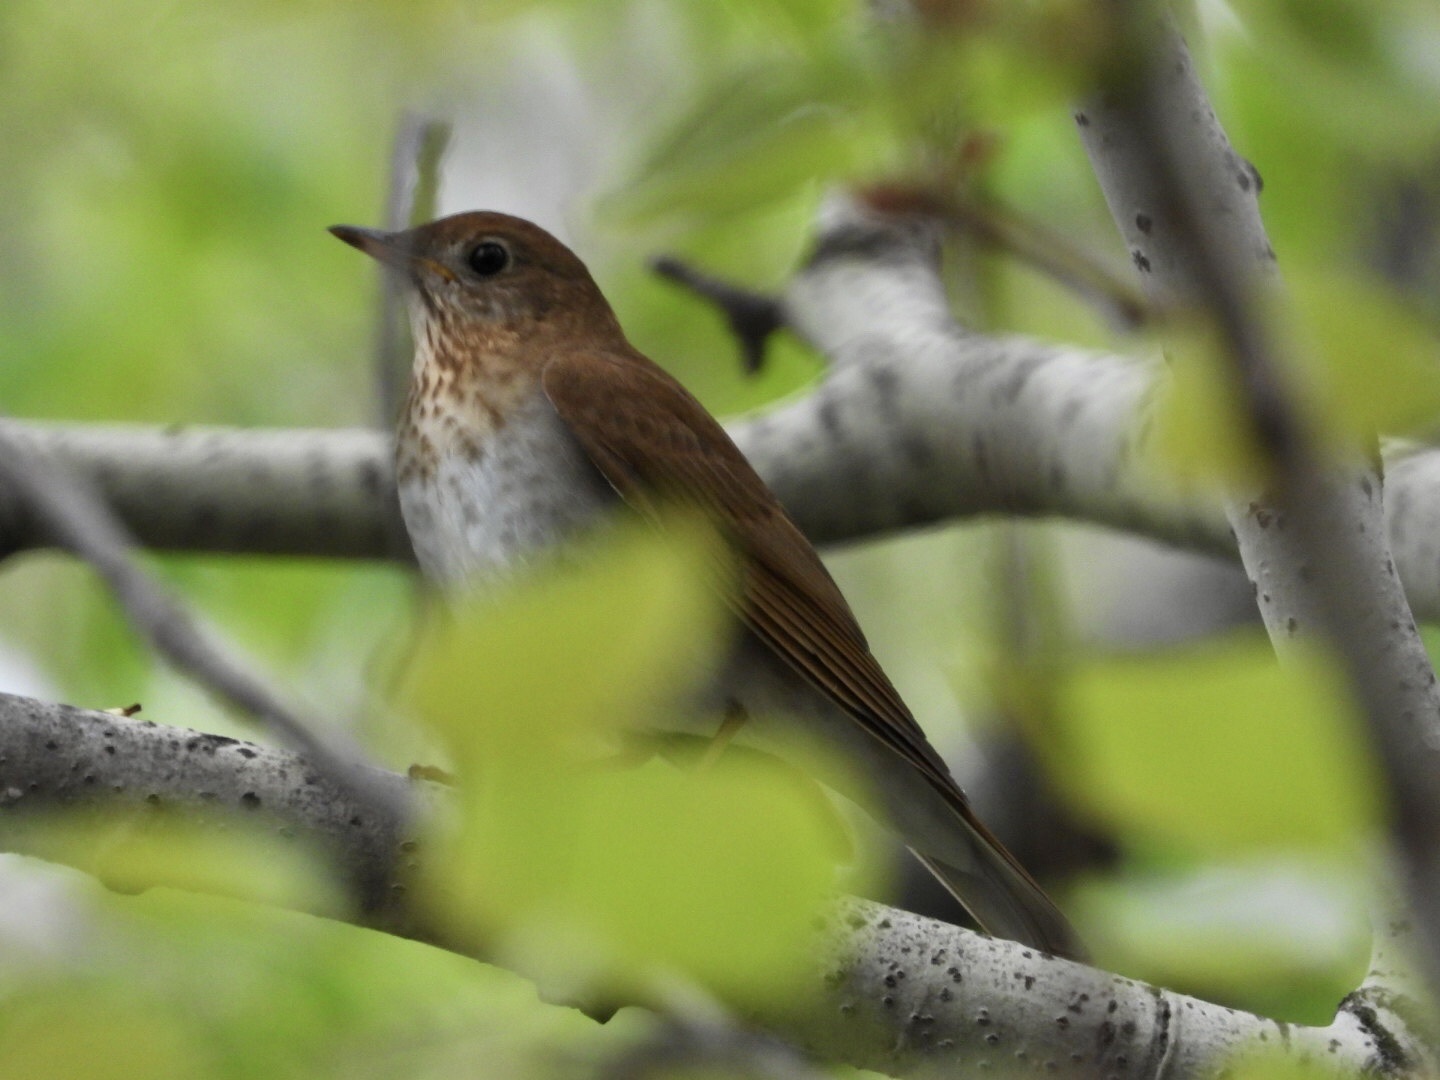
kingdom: Animalia
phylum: Chordata
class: Aves
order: Passeriformes
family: Turdidae
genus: Catharus
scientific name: Catharus fuscescens
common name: Veery
